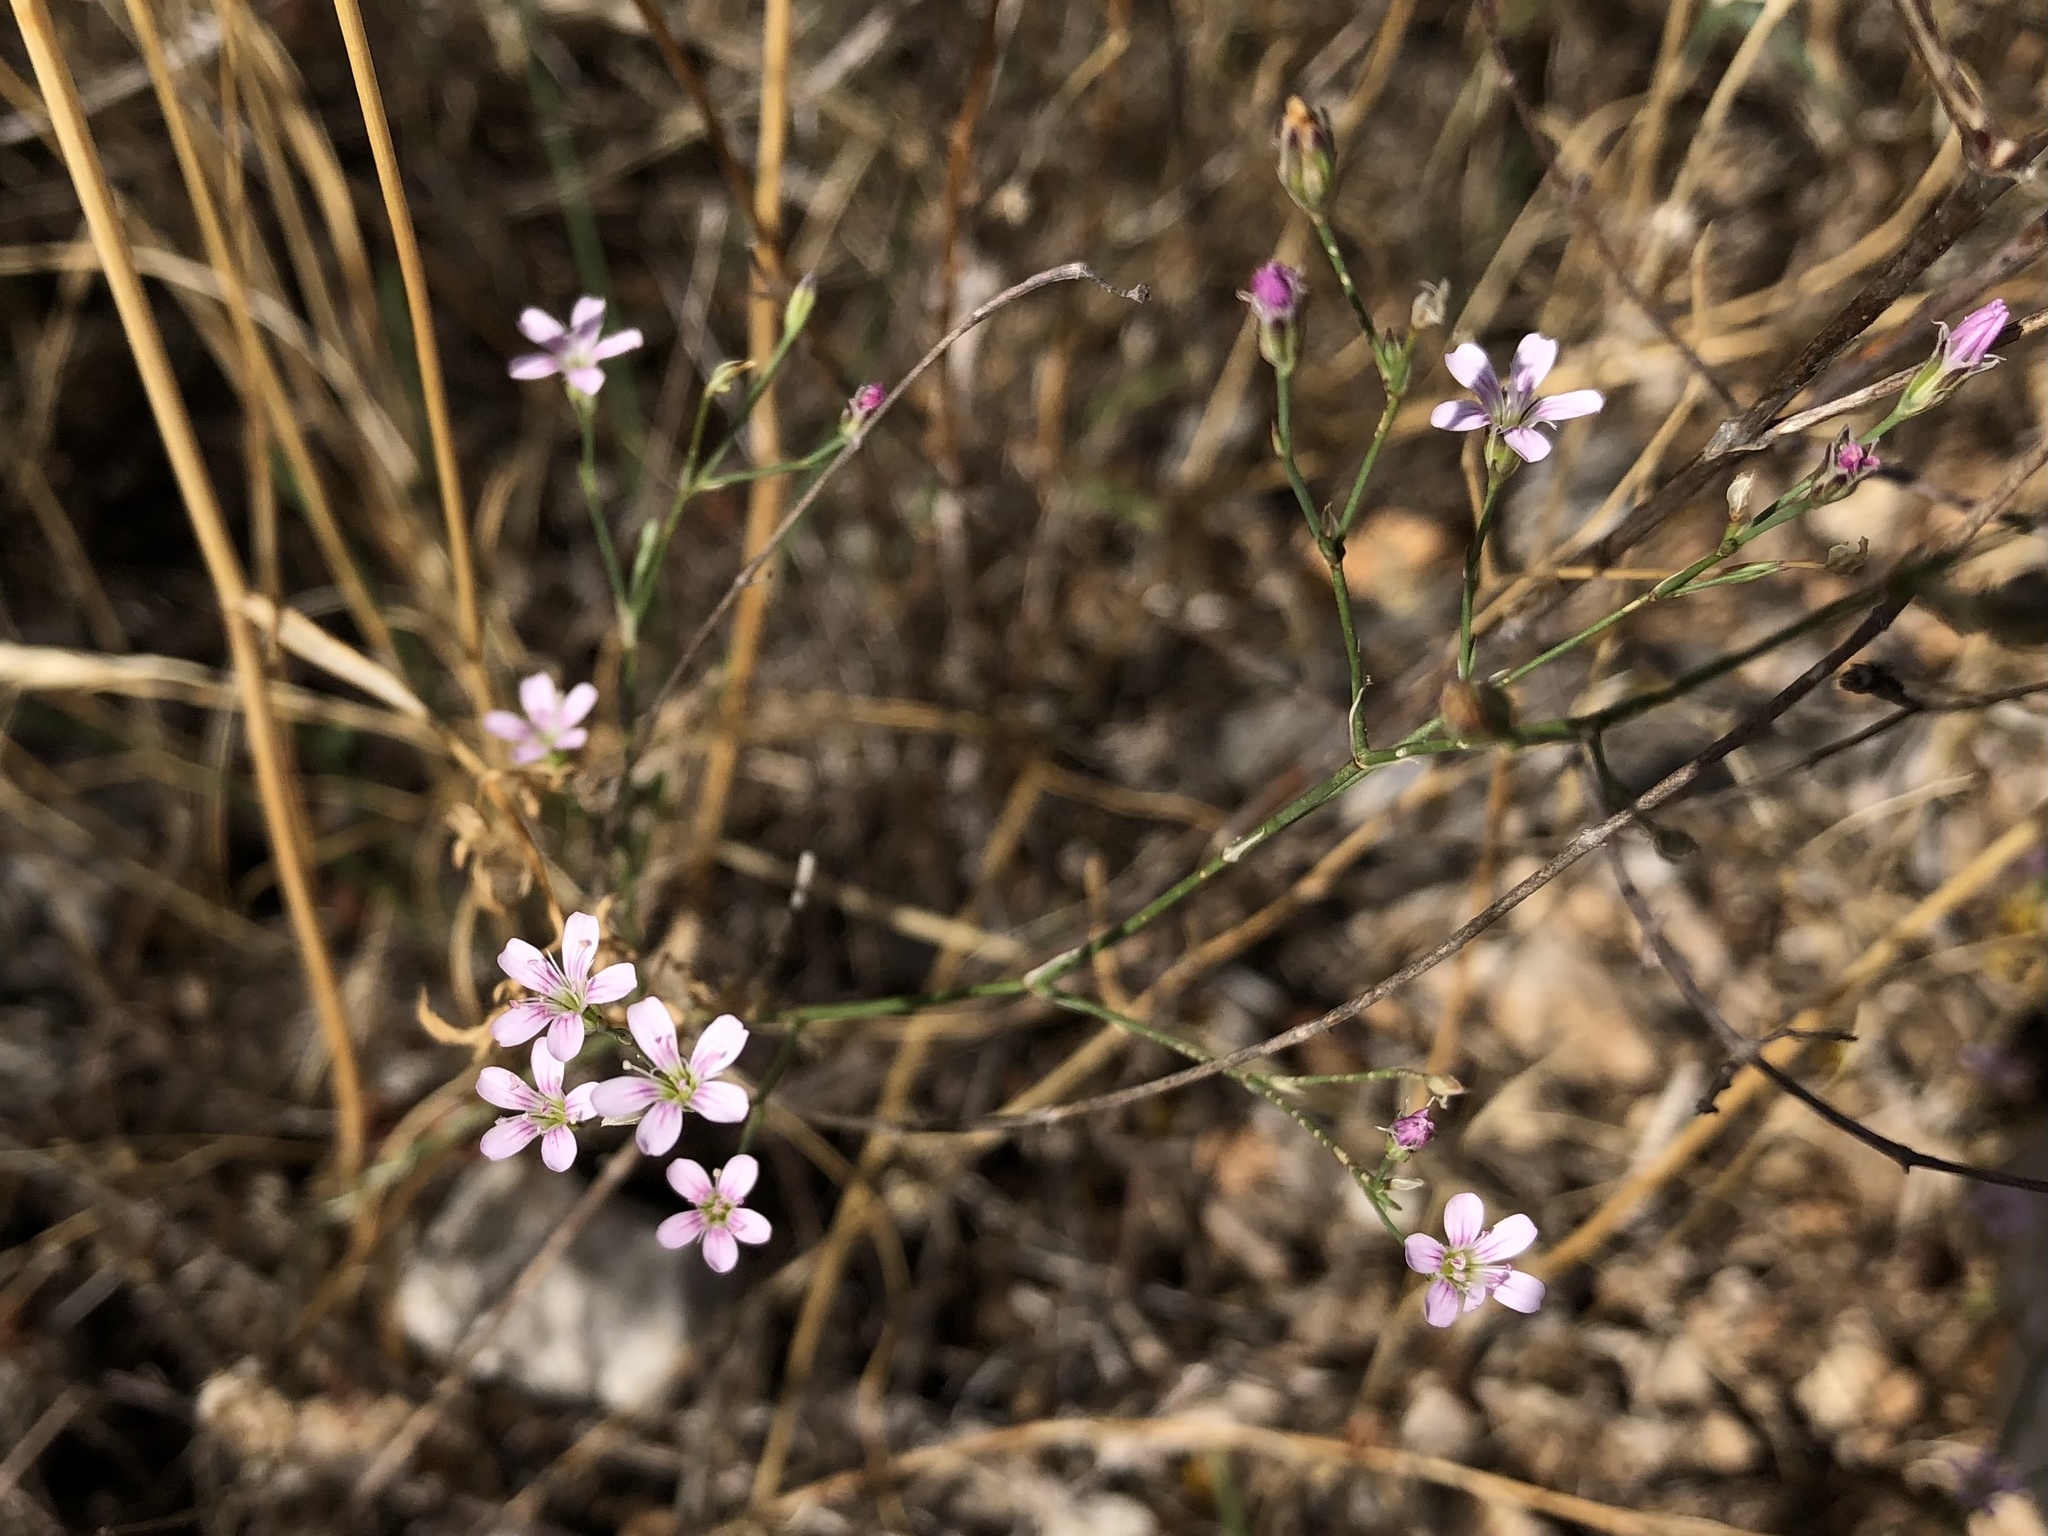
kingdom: Plantae
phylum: Tracheophyta
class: Magnoliopsida
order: Caryophyllales
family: Caryophyllaceae
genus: Petrorhagia
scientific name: Petrorhagia saxifraga
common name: Tunicflower
